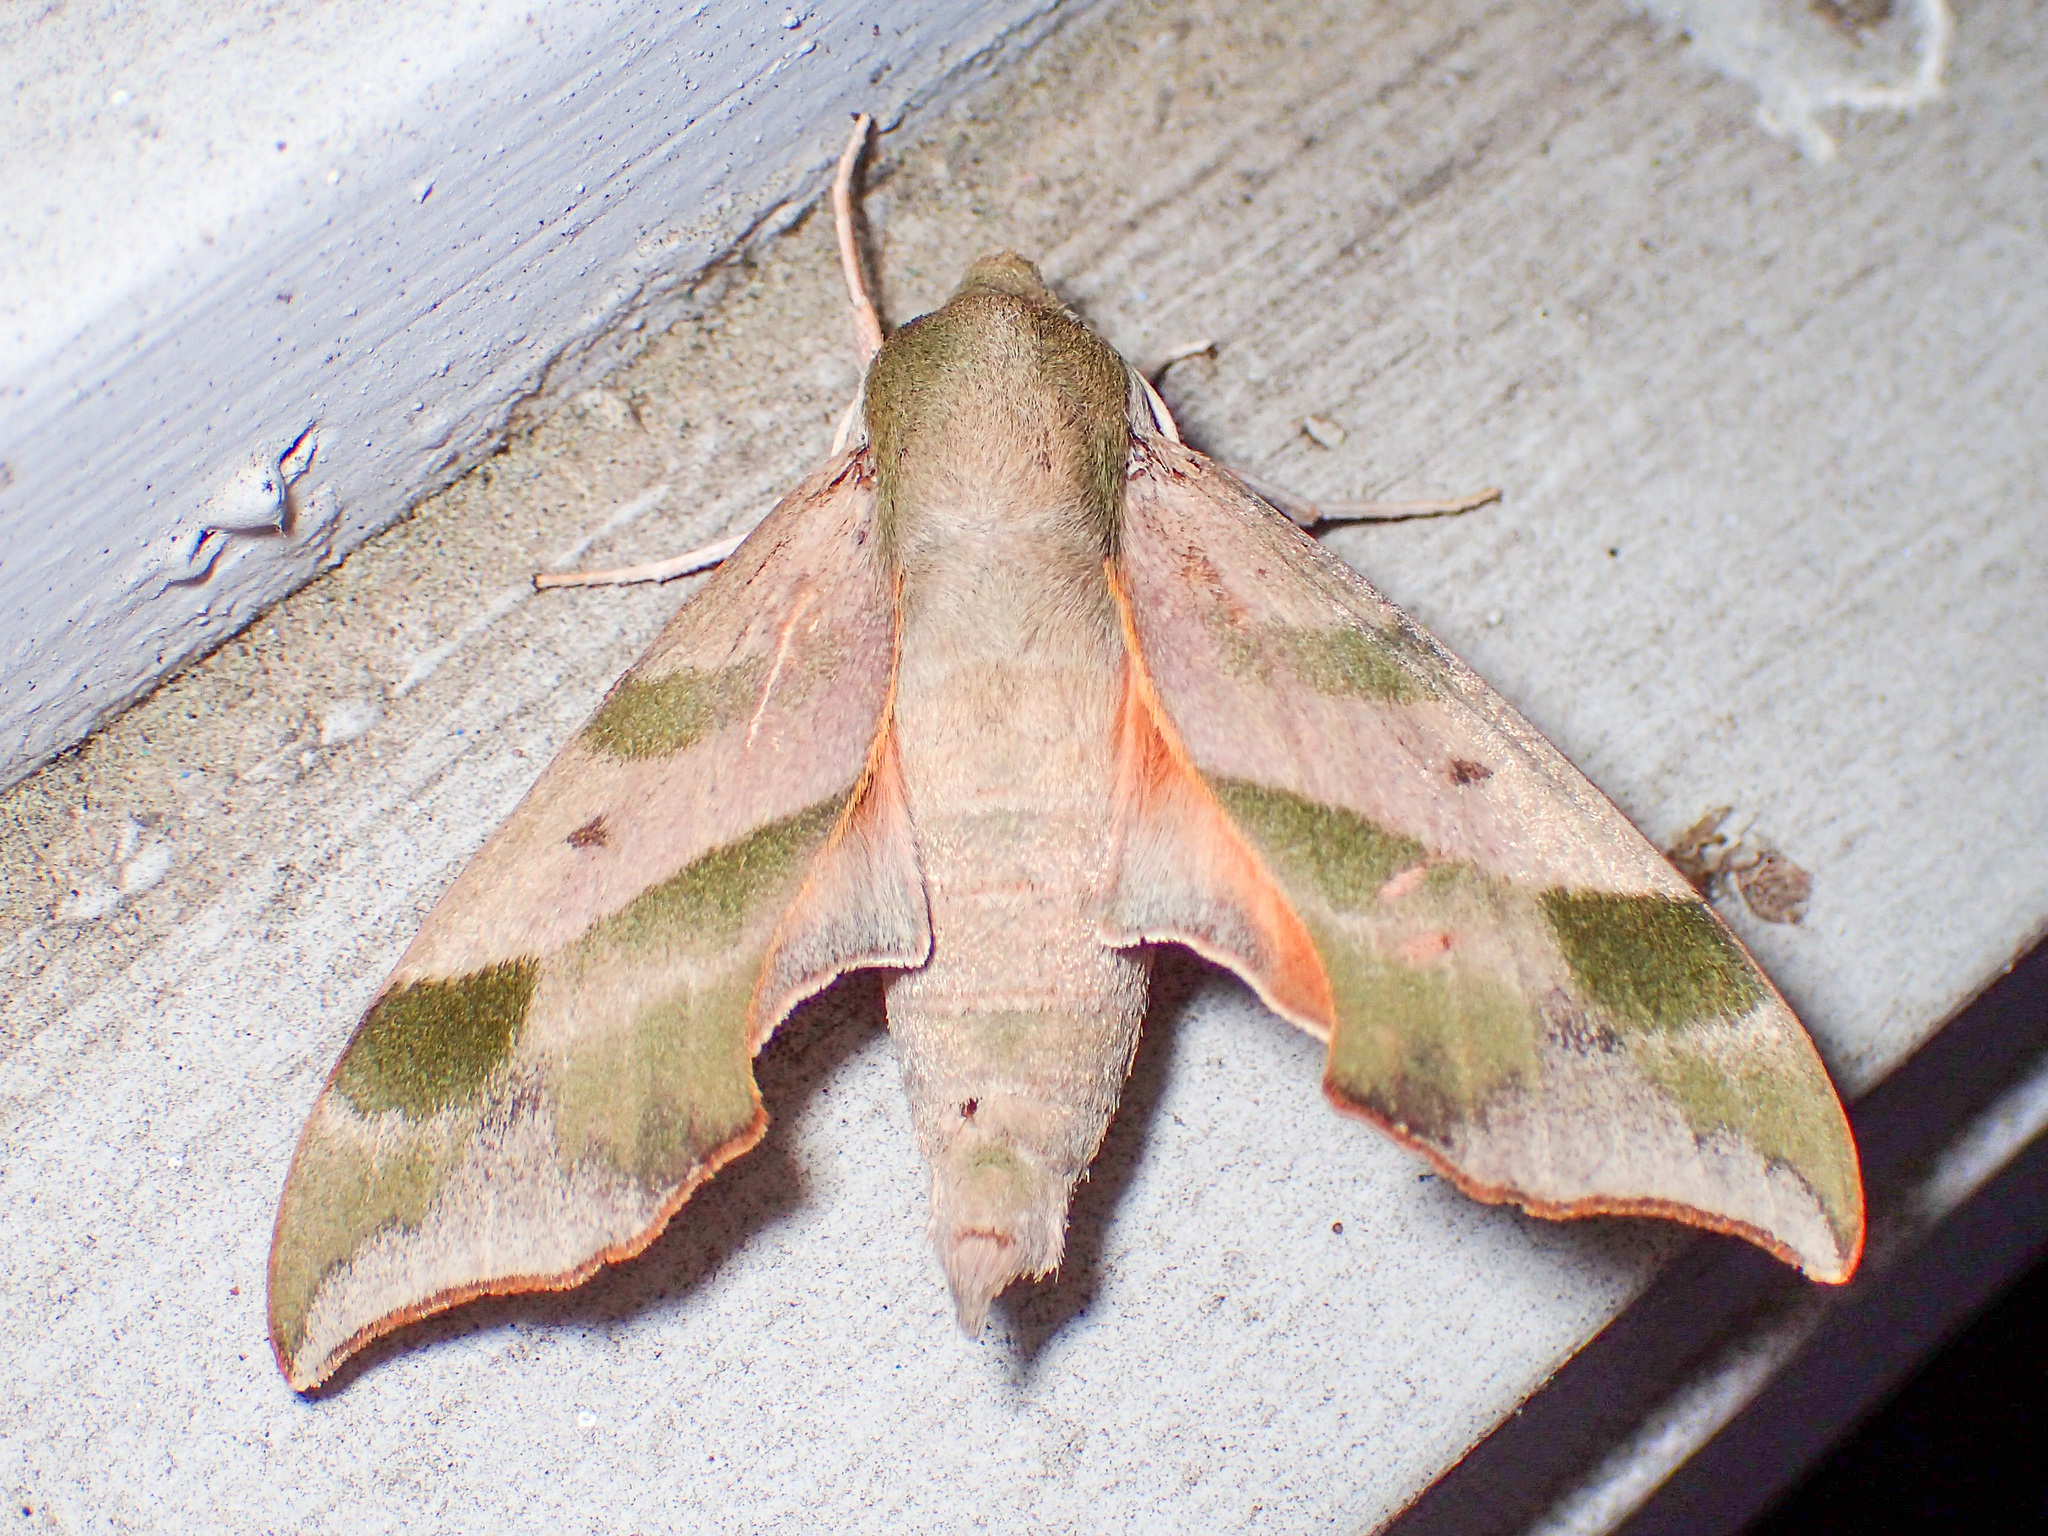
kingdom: Animalia
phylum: Arthropoda
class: Insecta
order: Lepidoptera
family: Sphingidae
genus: Darapsa
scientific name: Darapsa myron
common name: Hog sphinx
